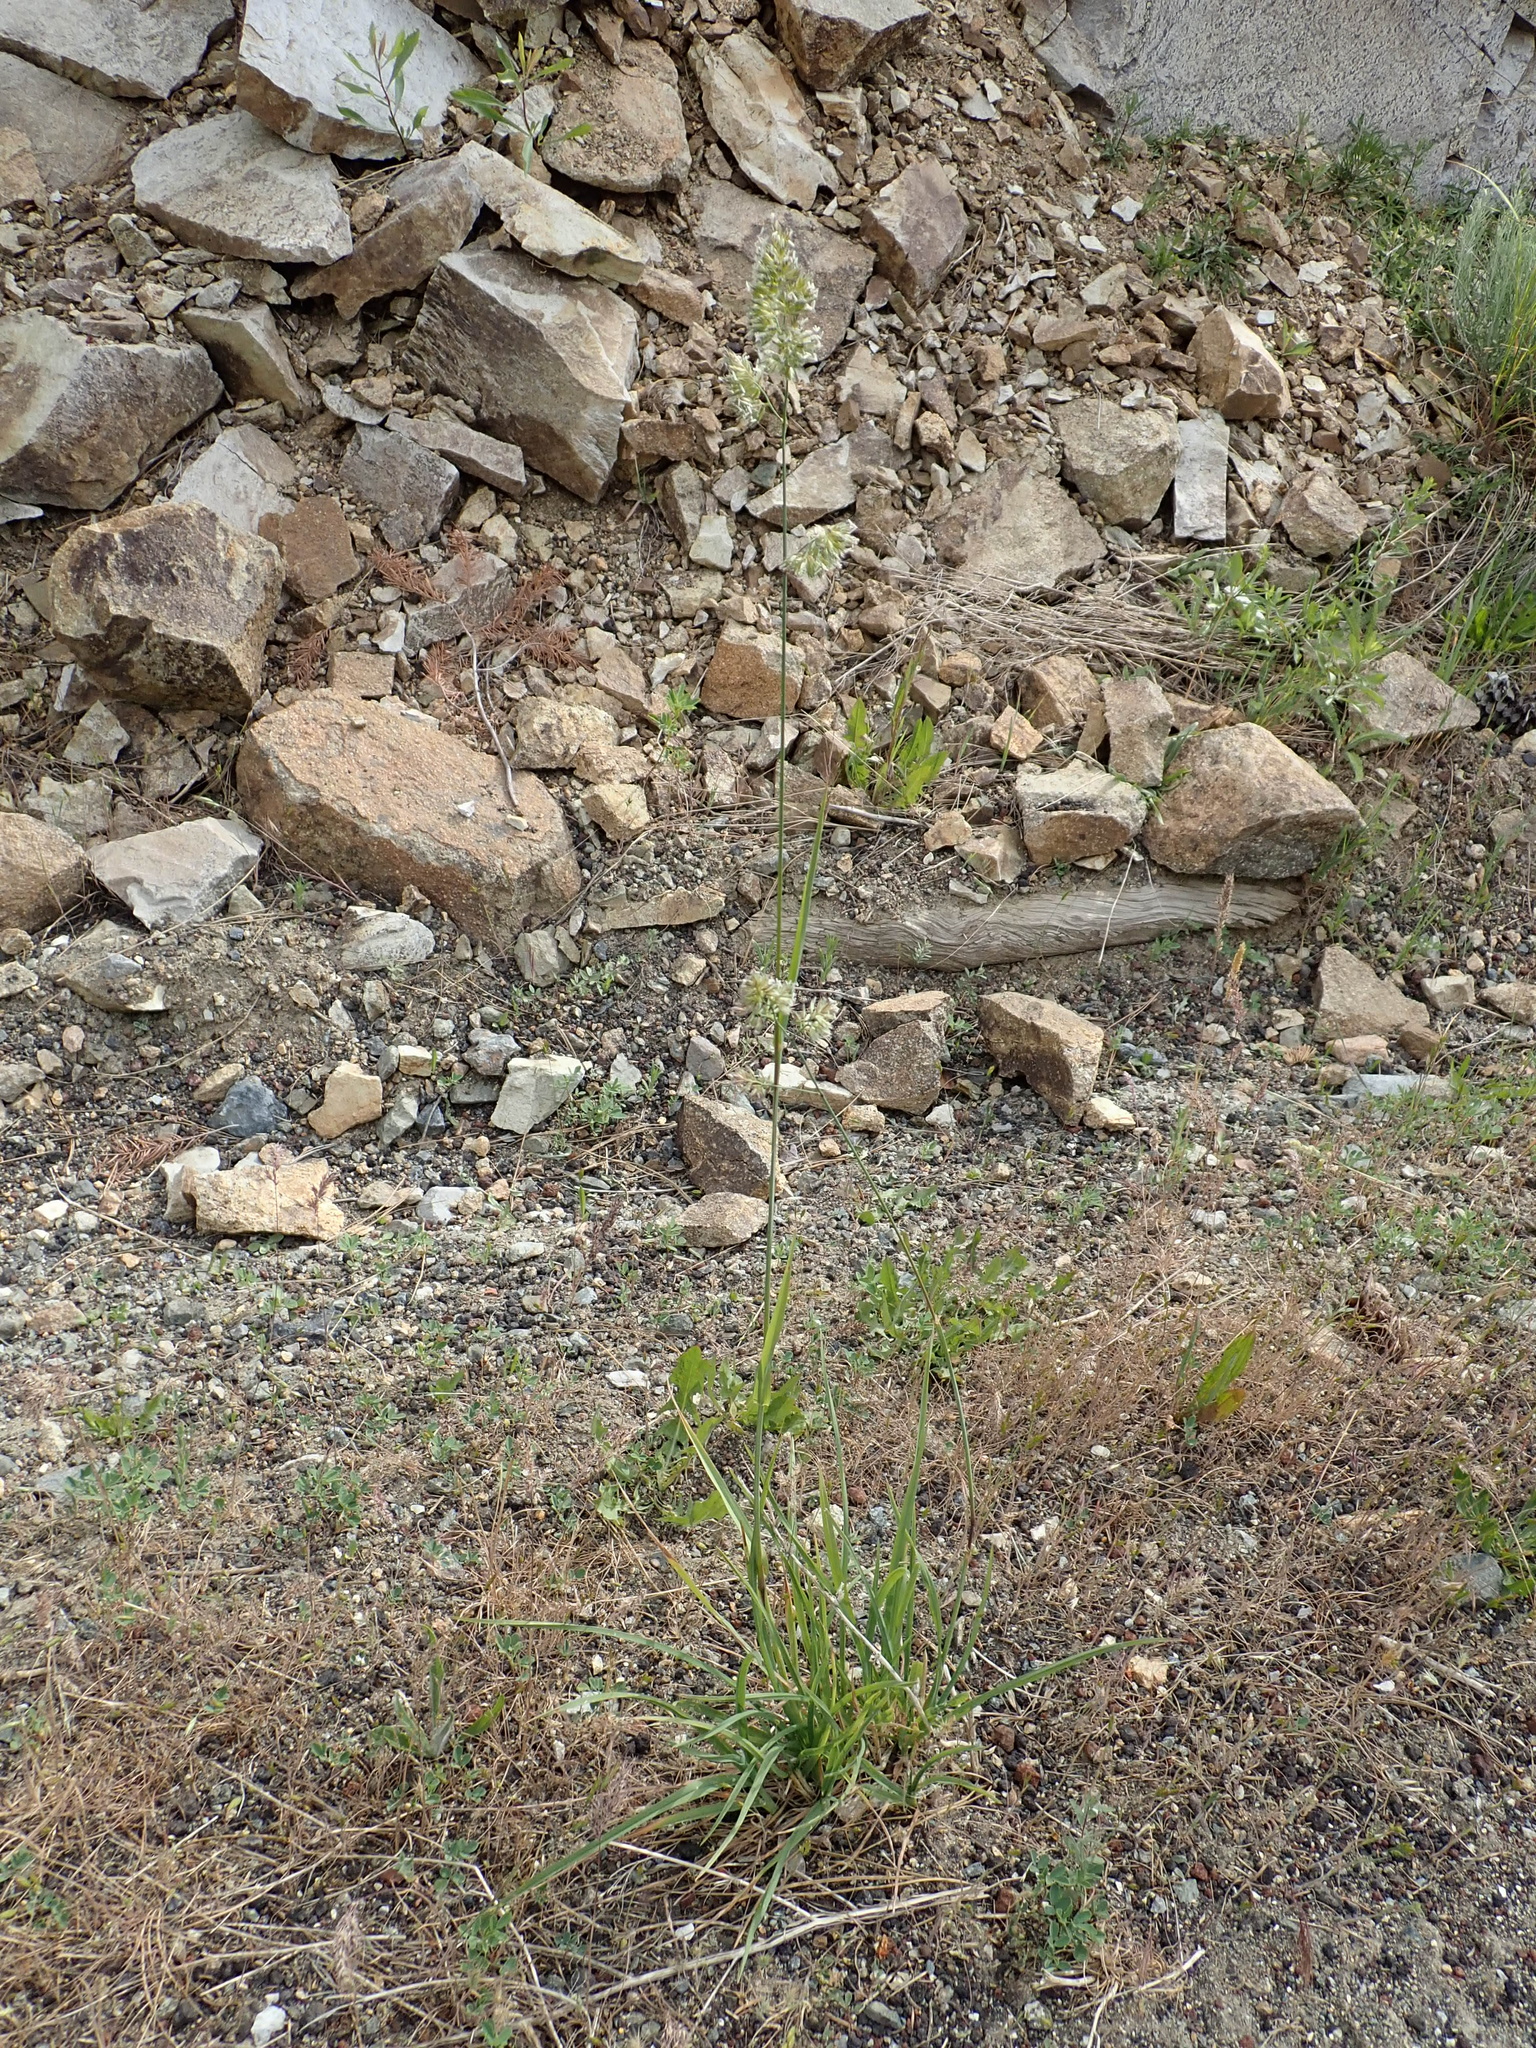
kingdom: Plantae
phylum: Tracheophyta
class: Liliopsida
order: Poales
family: Poaceae
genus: Dactylis
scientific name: Dactylis glomerata
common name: Orchardgrass
